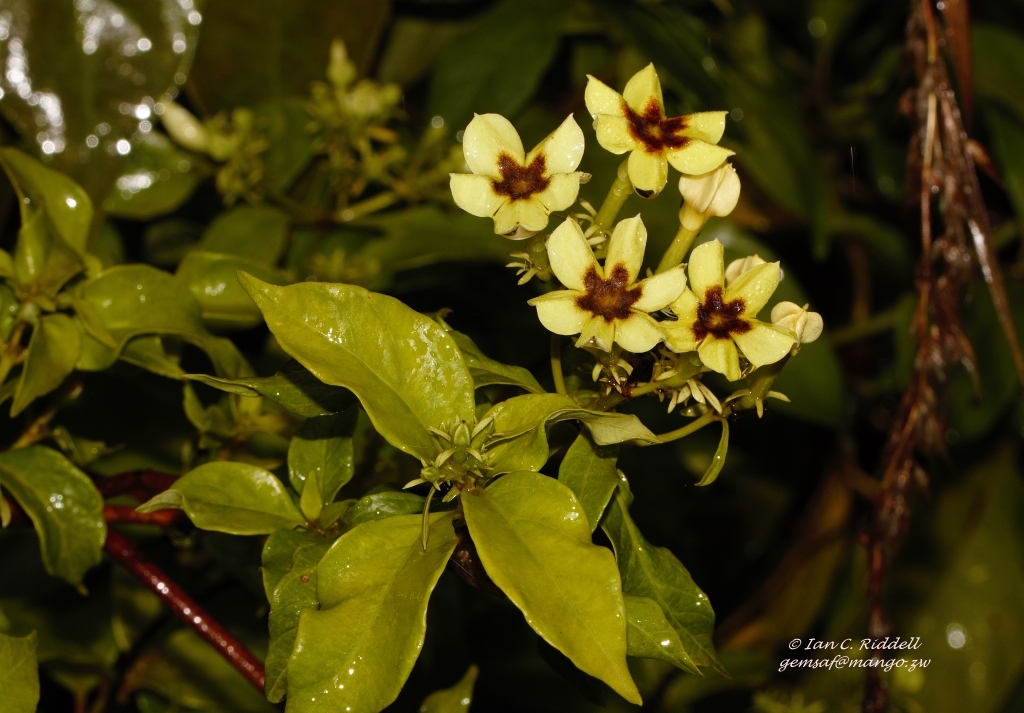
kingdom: Plantae
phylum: Tracheophyta
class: Magnoliopsida
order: Gentianales
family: Rubiaceae
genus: Mussaenda
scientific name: Mussaenda arcuata
